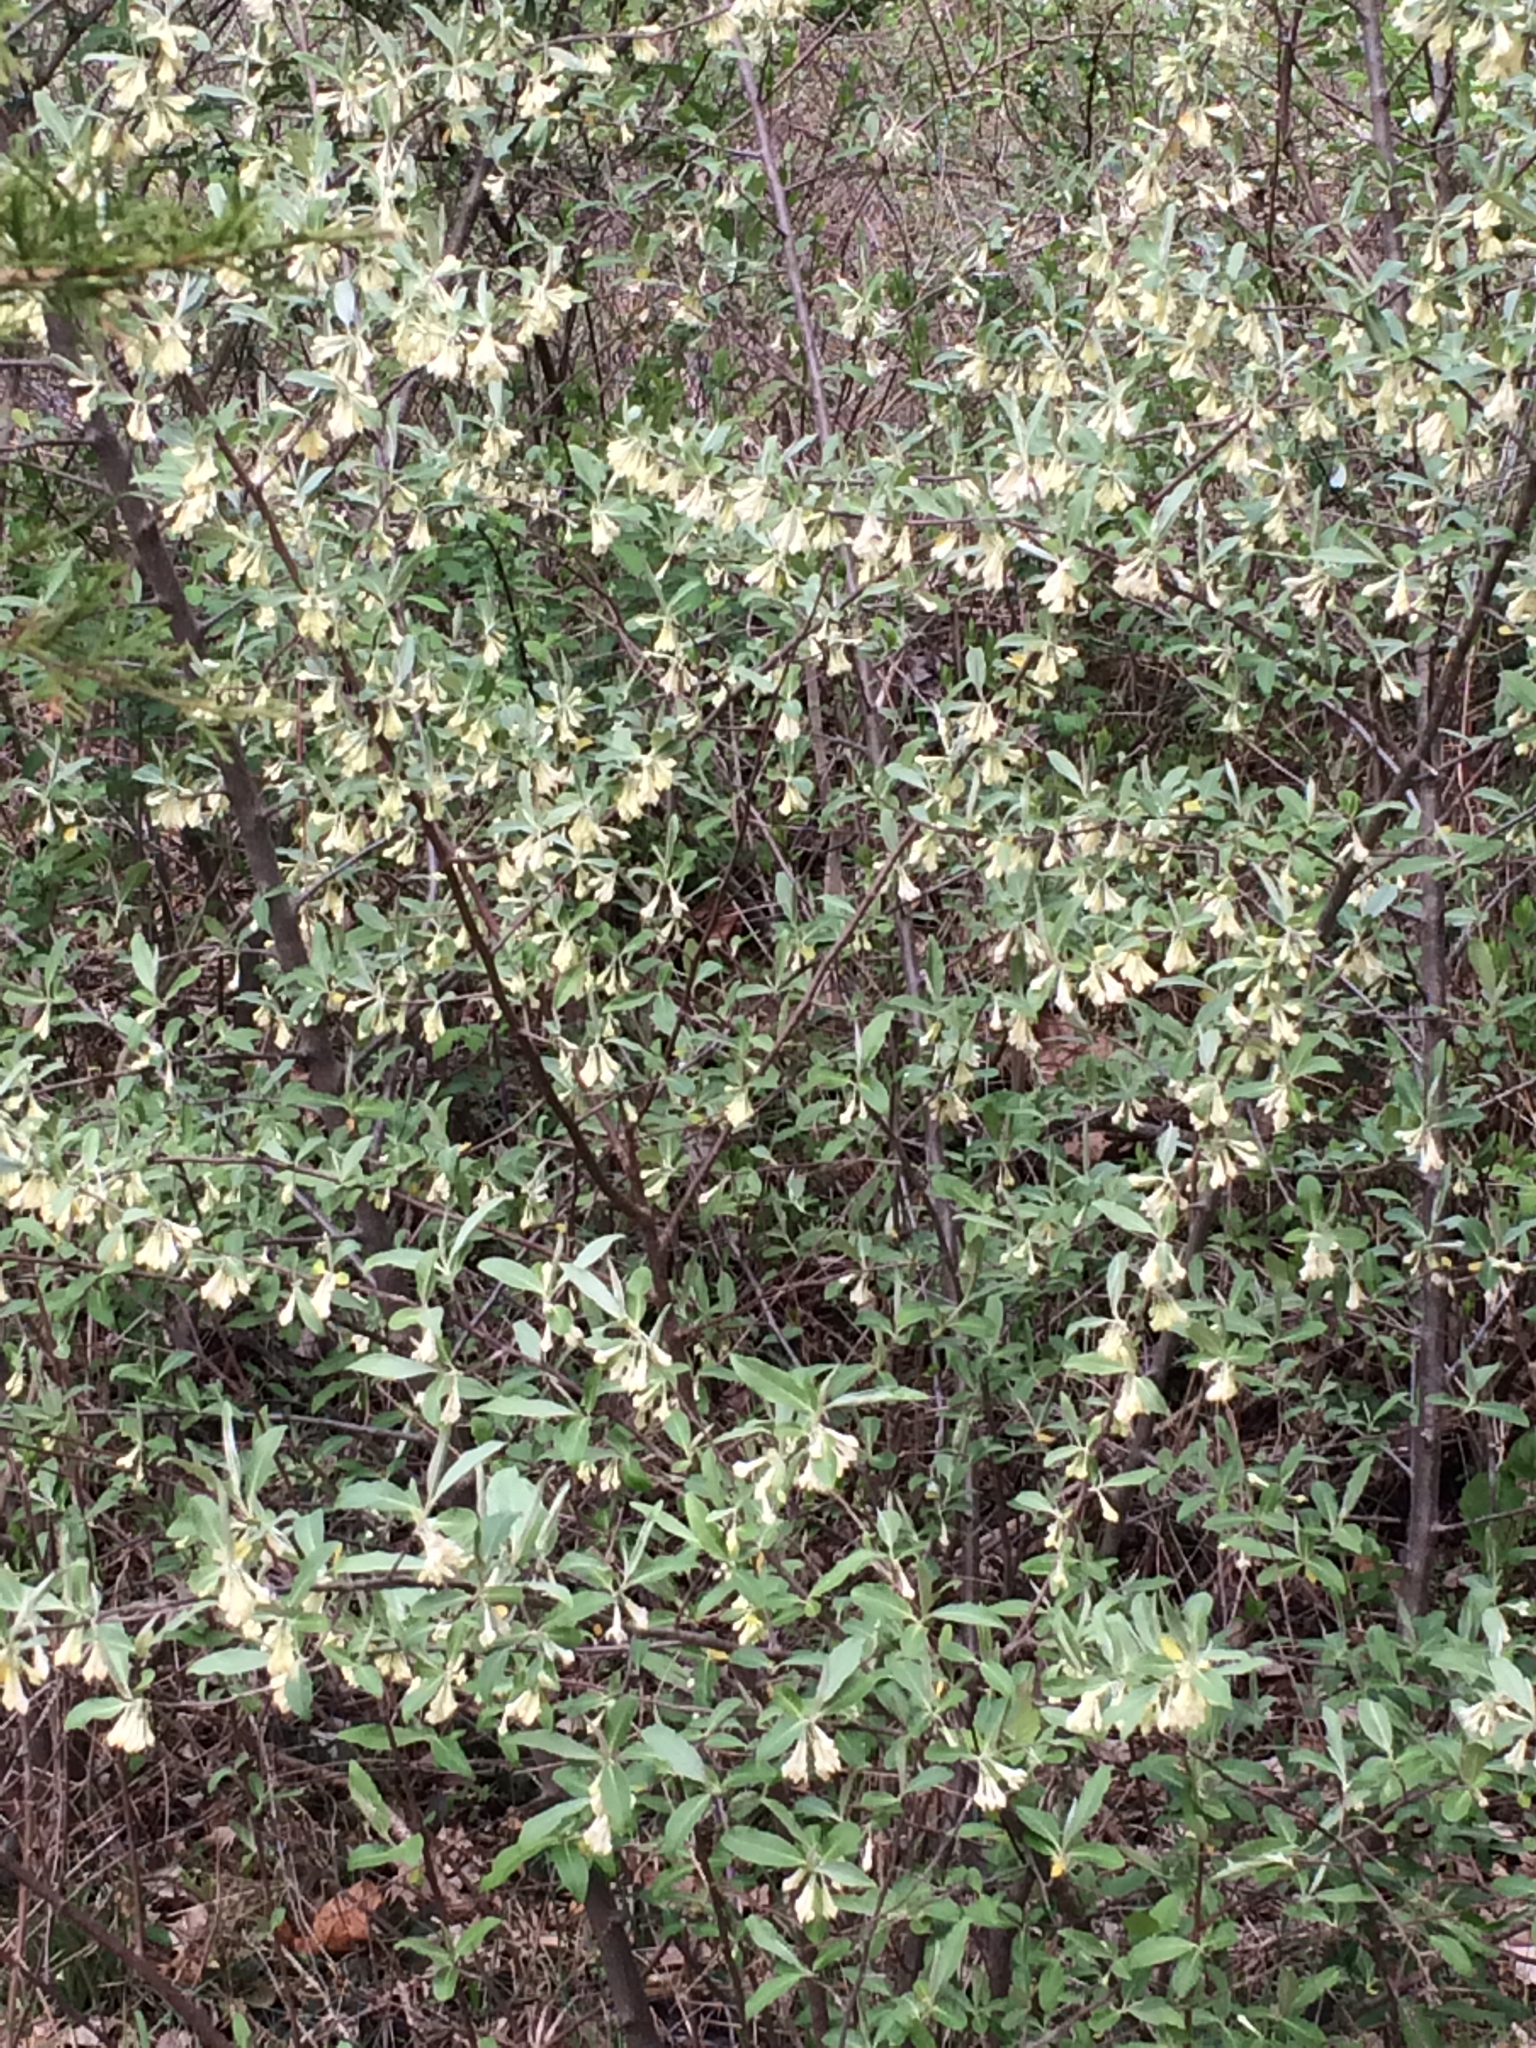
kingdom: Plantae
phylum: Tracheophyta
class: Magnoliopsida
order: Rosales
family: Elaeagnaceae
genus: Elaeagnus
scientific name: Elaeagnus umbellata
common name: Autumn olive
